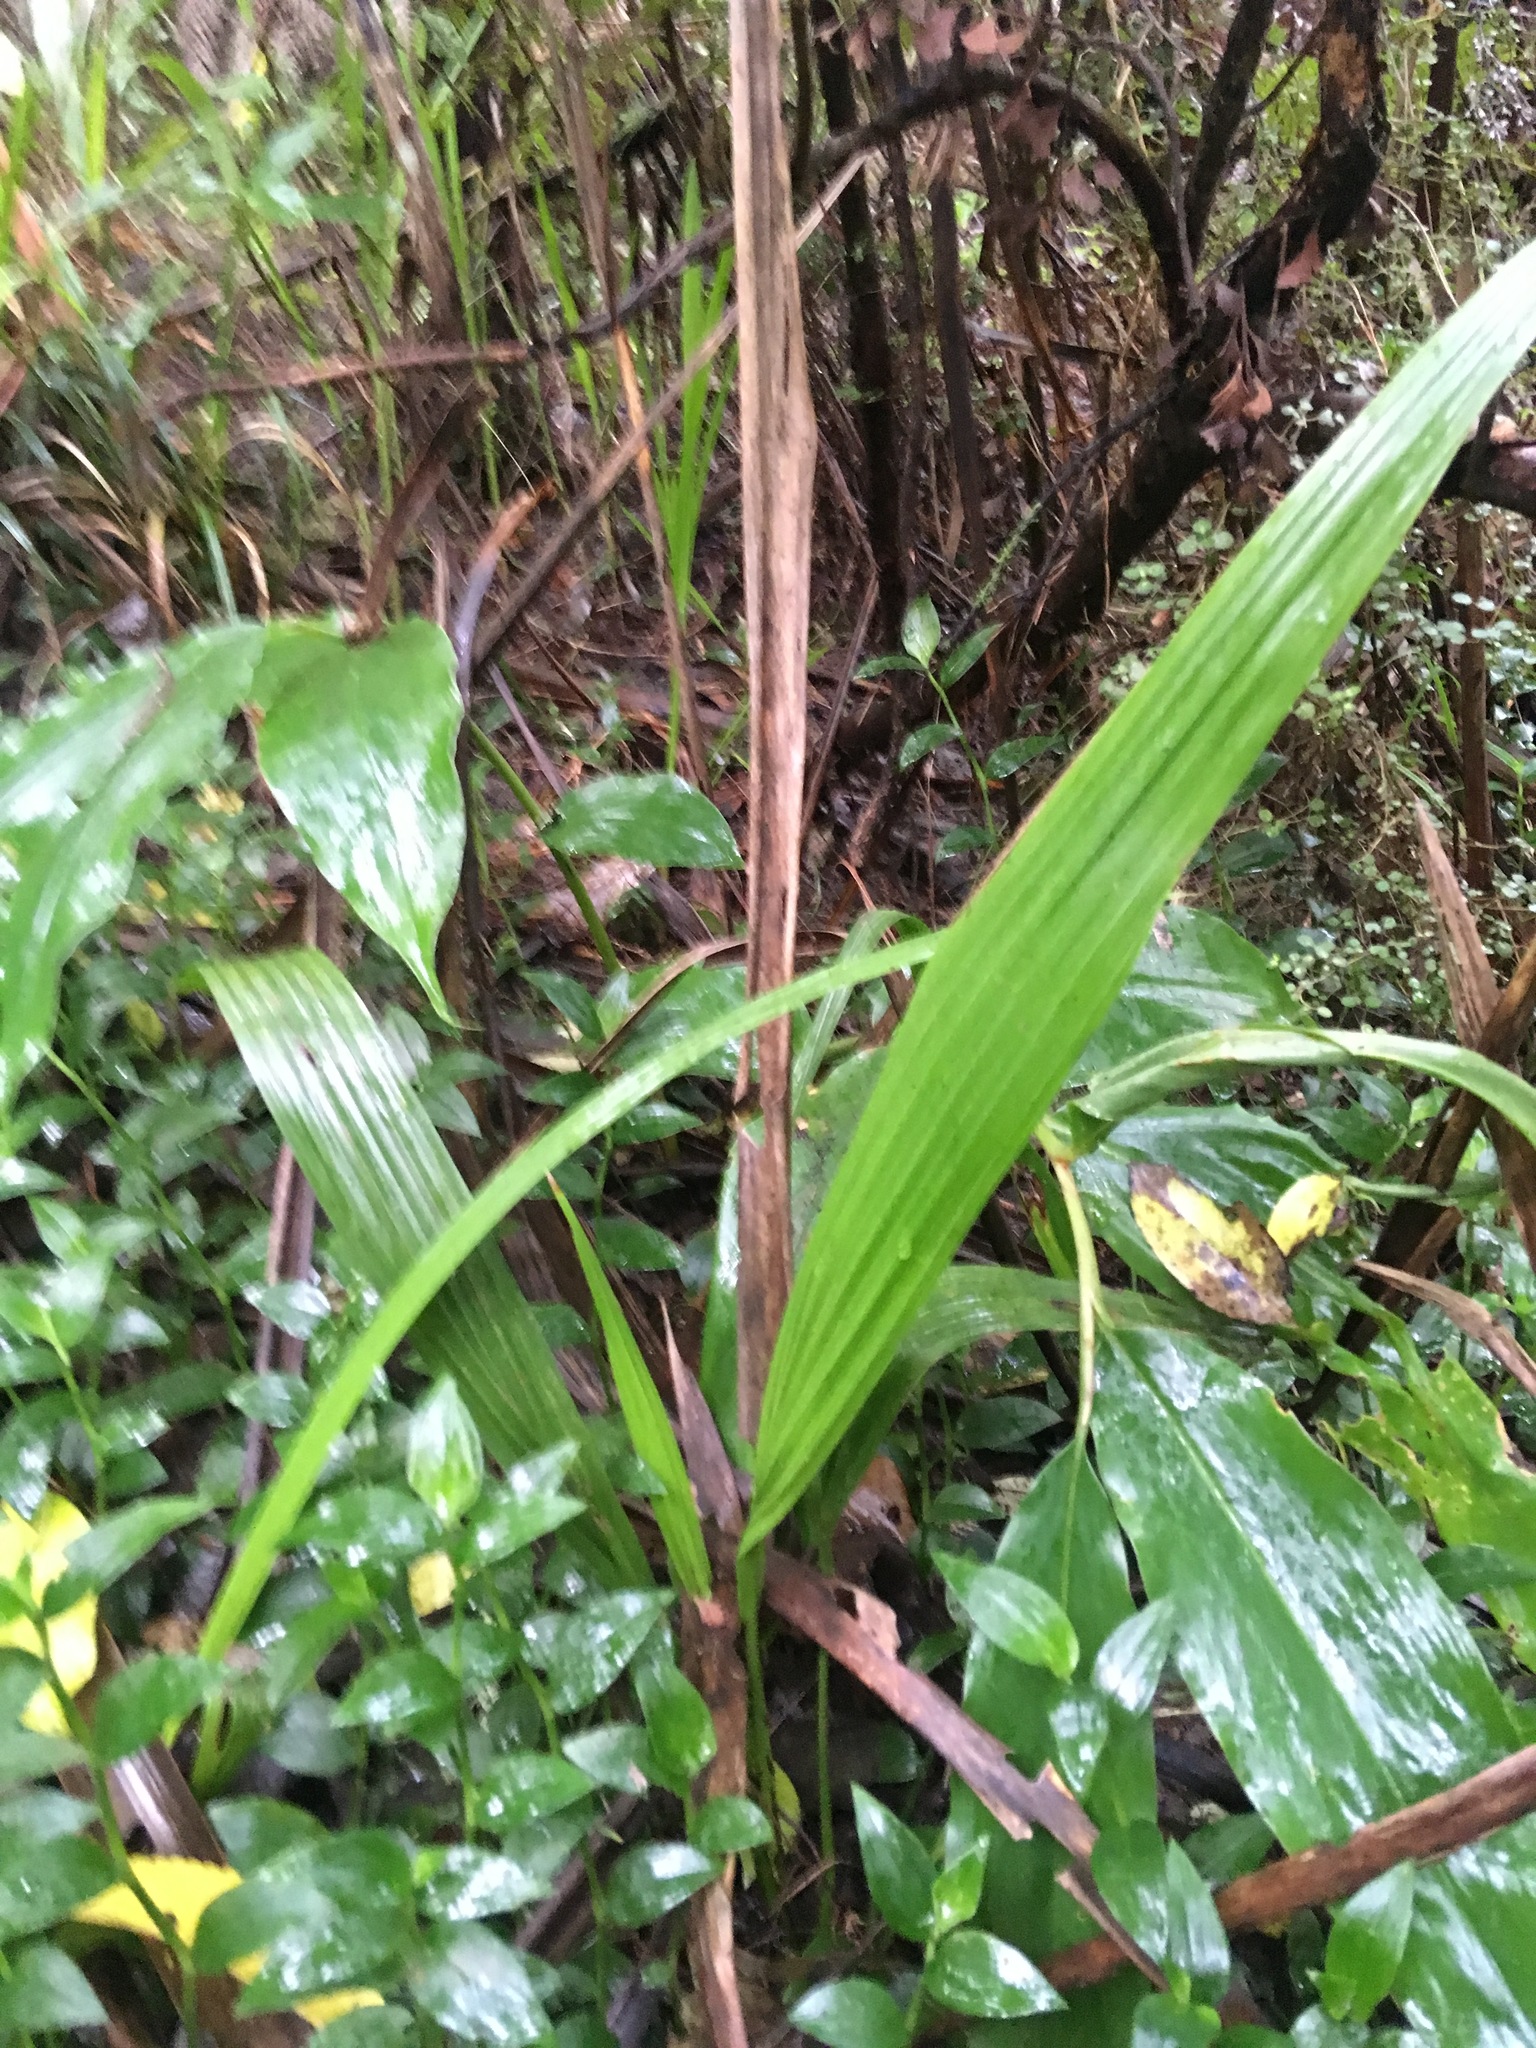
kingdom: Plantae
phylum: Tracheophyta
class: Liliopsida
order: Arecales
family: Arecaceae
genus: Phoenix
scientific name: Phoenix canariensis
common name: Canary island date palm
